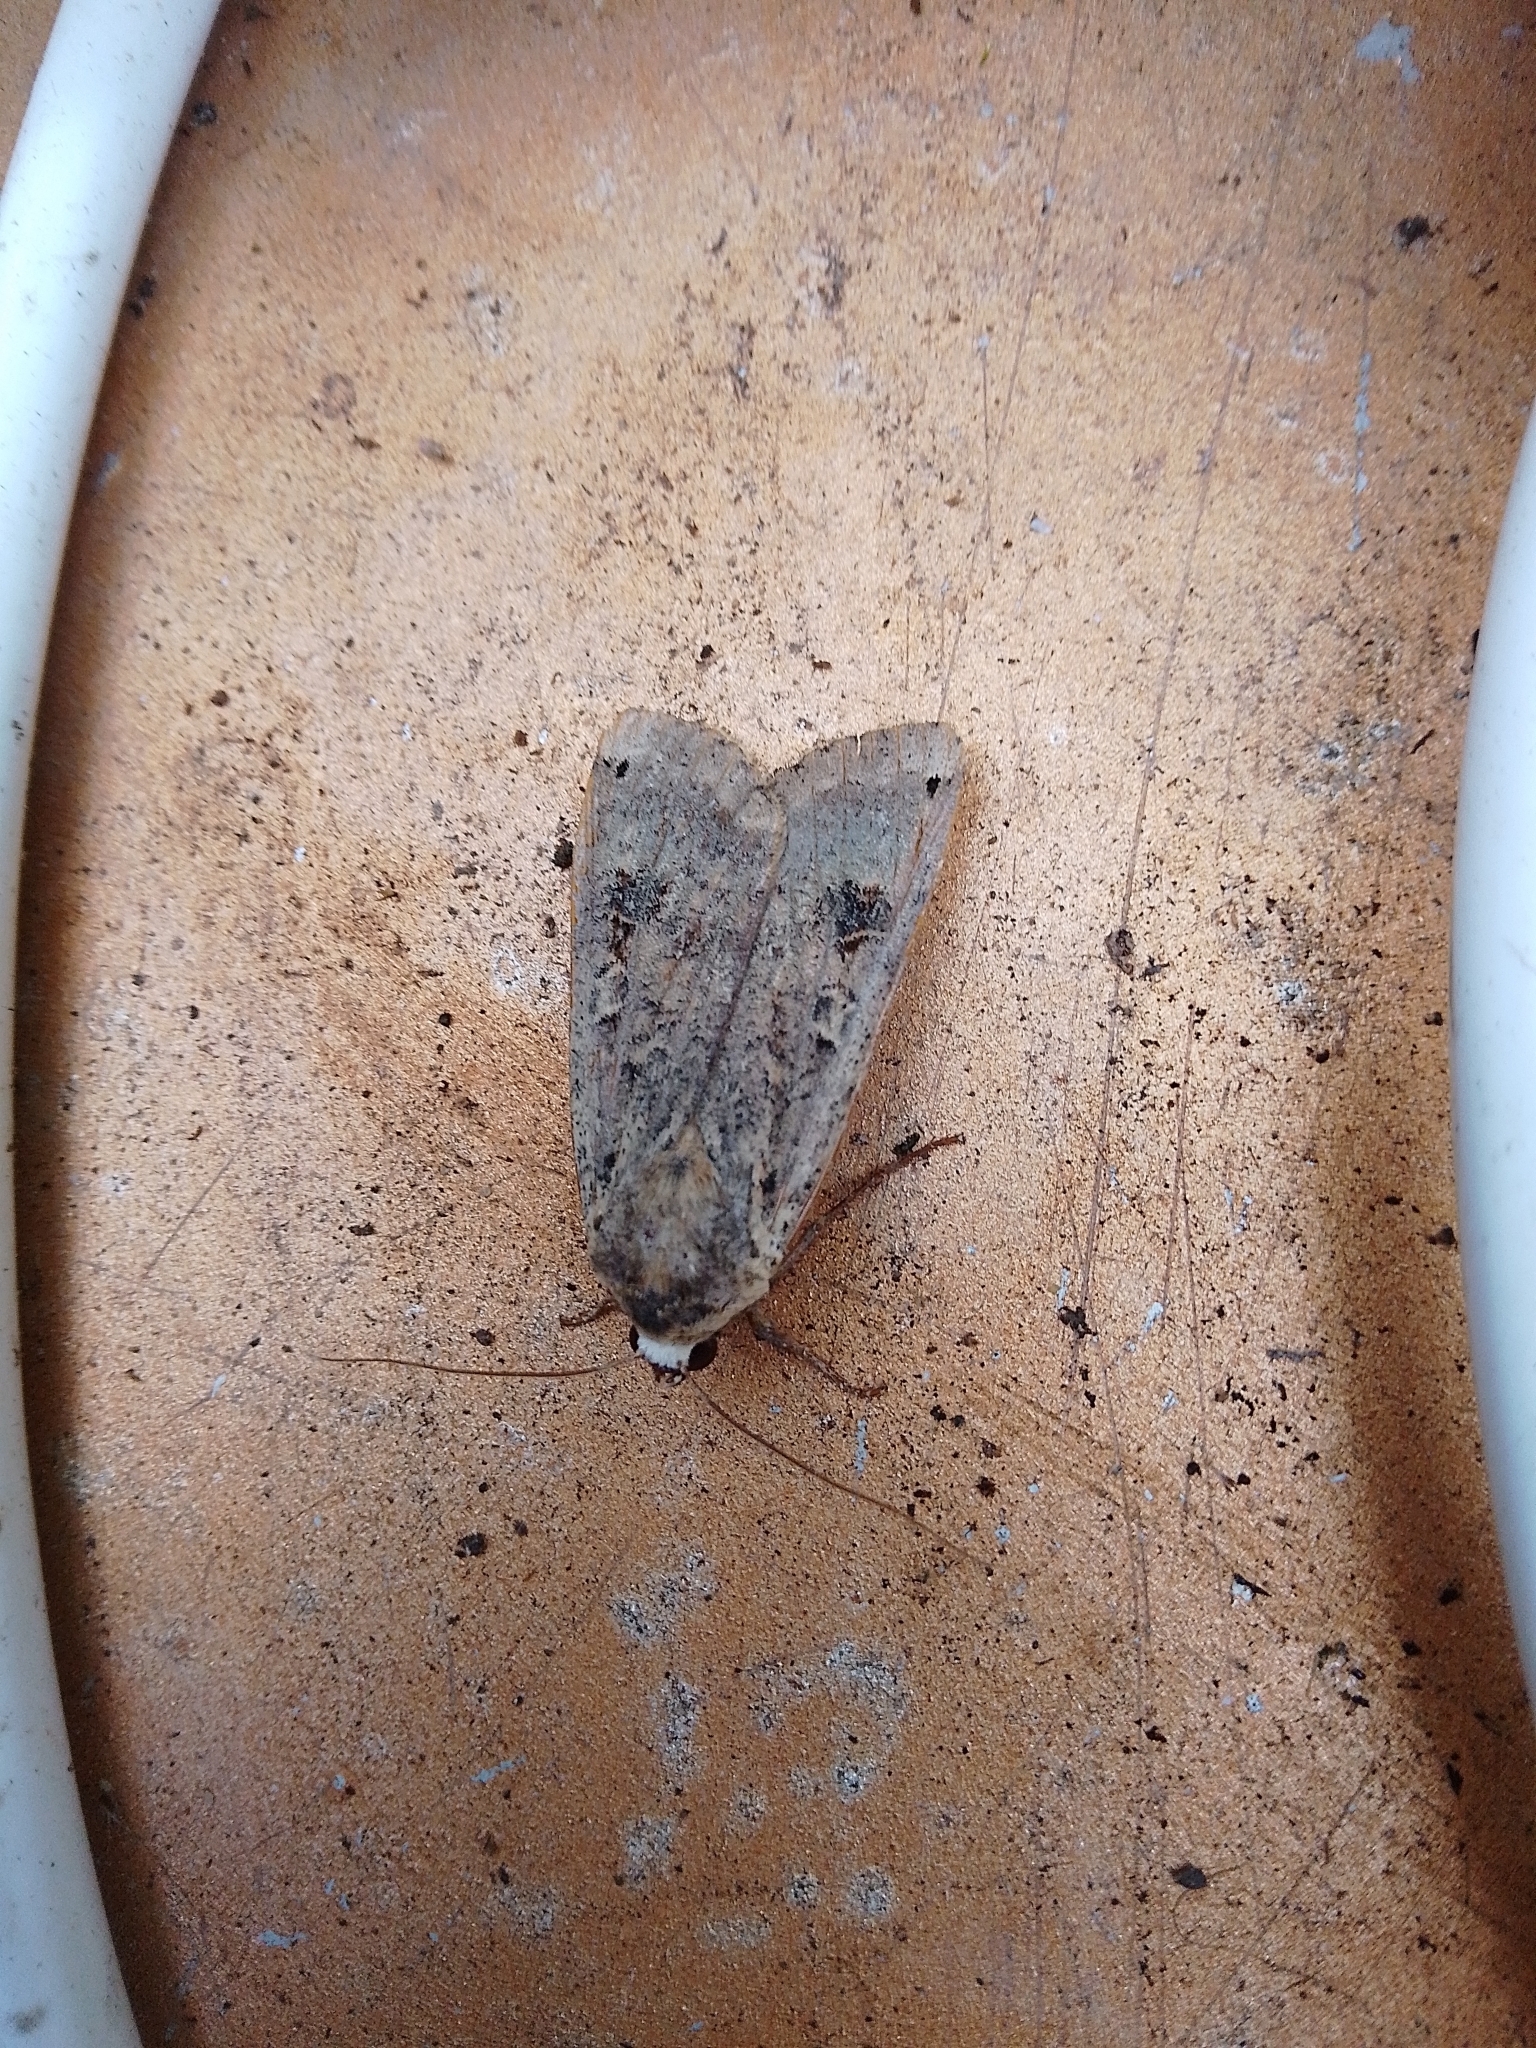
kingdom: Animalia
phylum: Arthropoda
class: Insecta
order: Lepidoptera
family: Noctuidae
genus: Noctua
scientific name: Noctua pronuba
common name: Large yellow underwing
